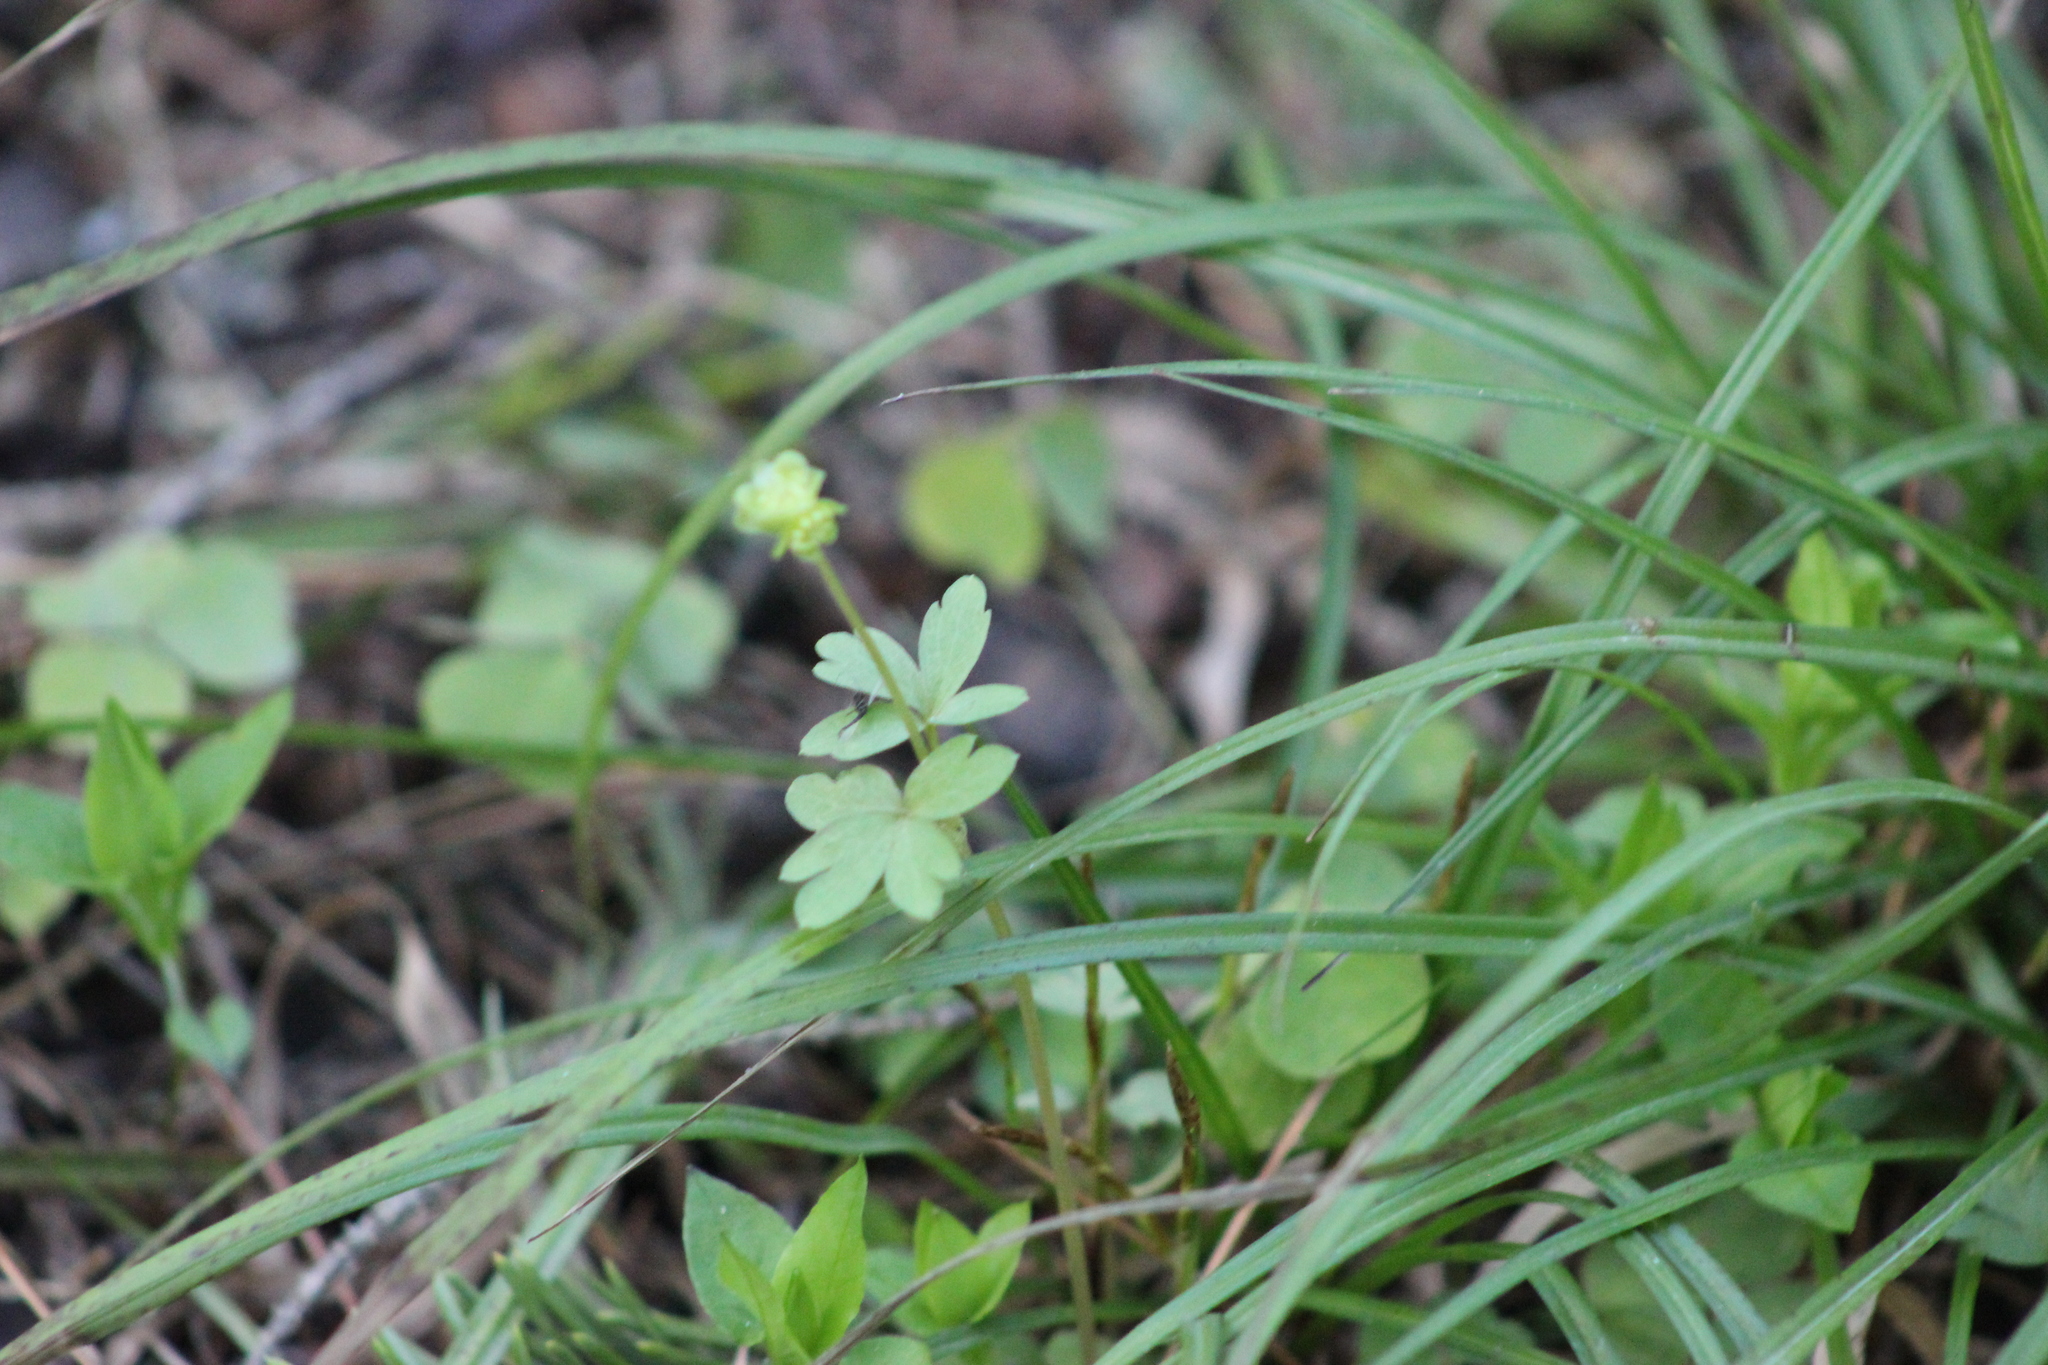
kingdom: Plantae
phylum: Tracheophyta
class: Magnoliopsida
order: Dipsacales
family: Viburnaceae
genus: Adoxa
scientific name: Adoxa moschatellina
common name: Moschatel
